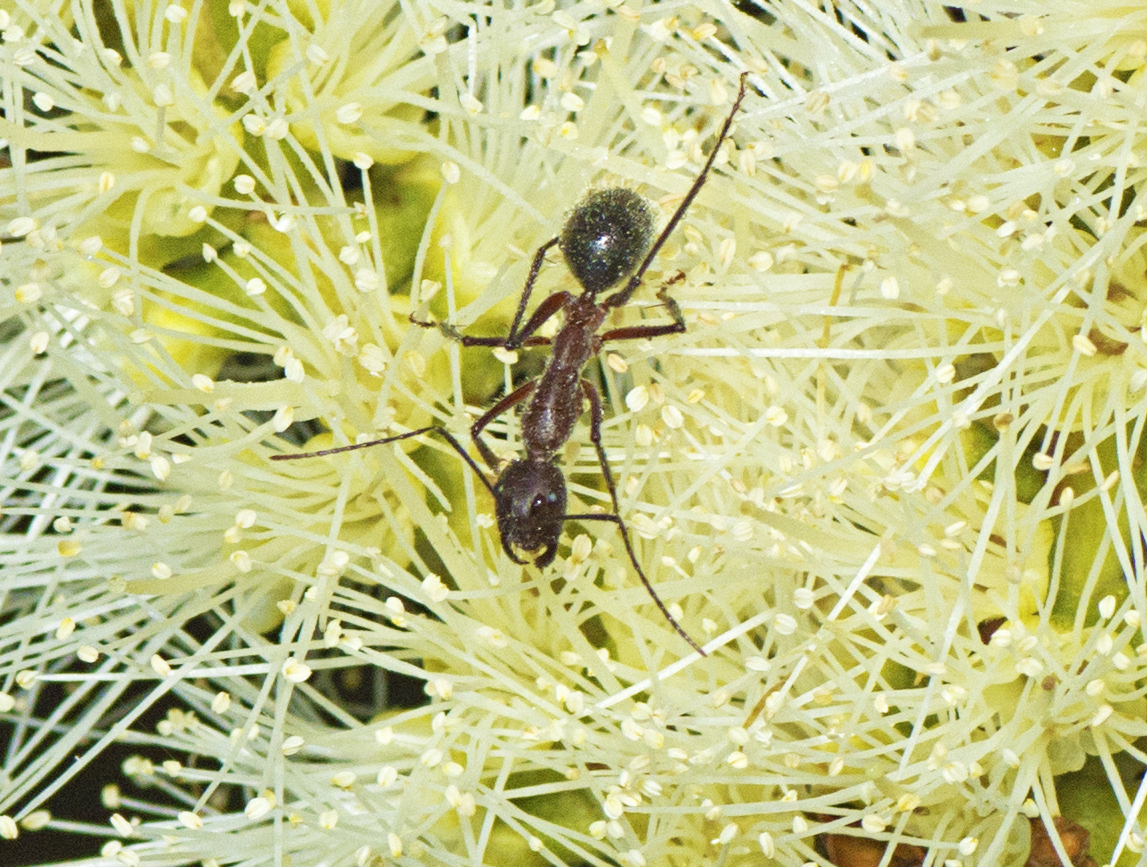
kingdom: Animalia
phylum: Arthropoda
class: Insecta
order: Hymenoptera
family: Formicidae
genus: Camponotus
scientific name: Camponotus intrepidus
